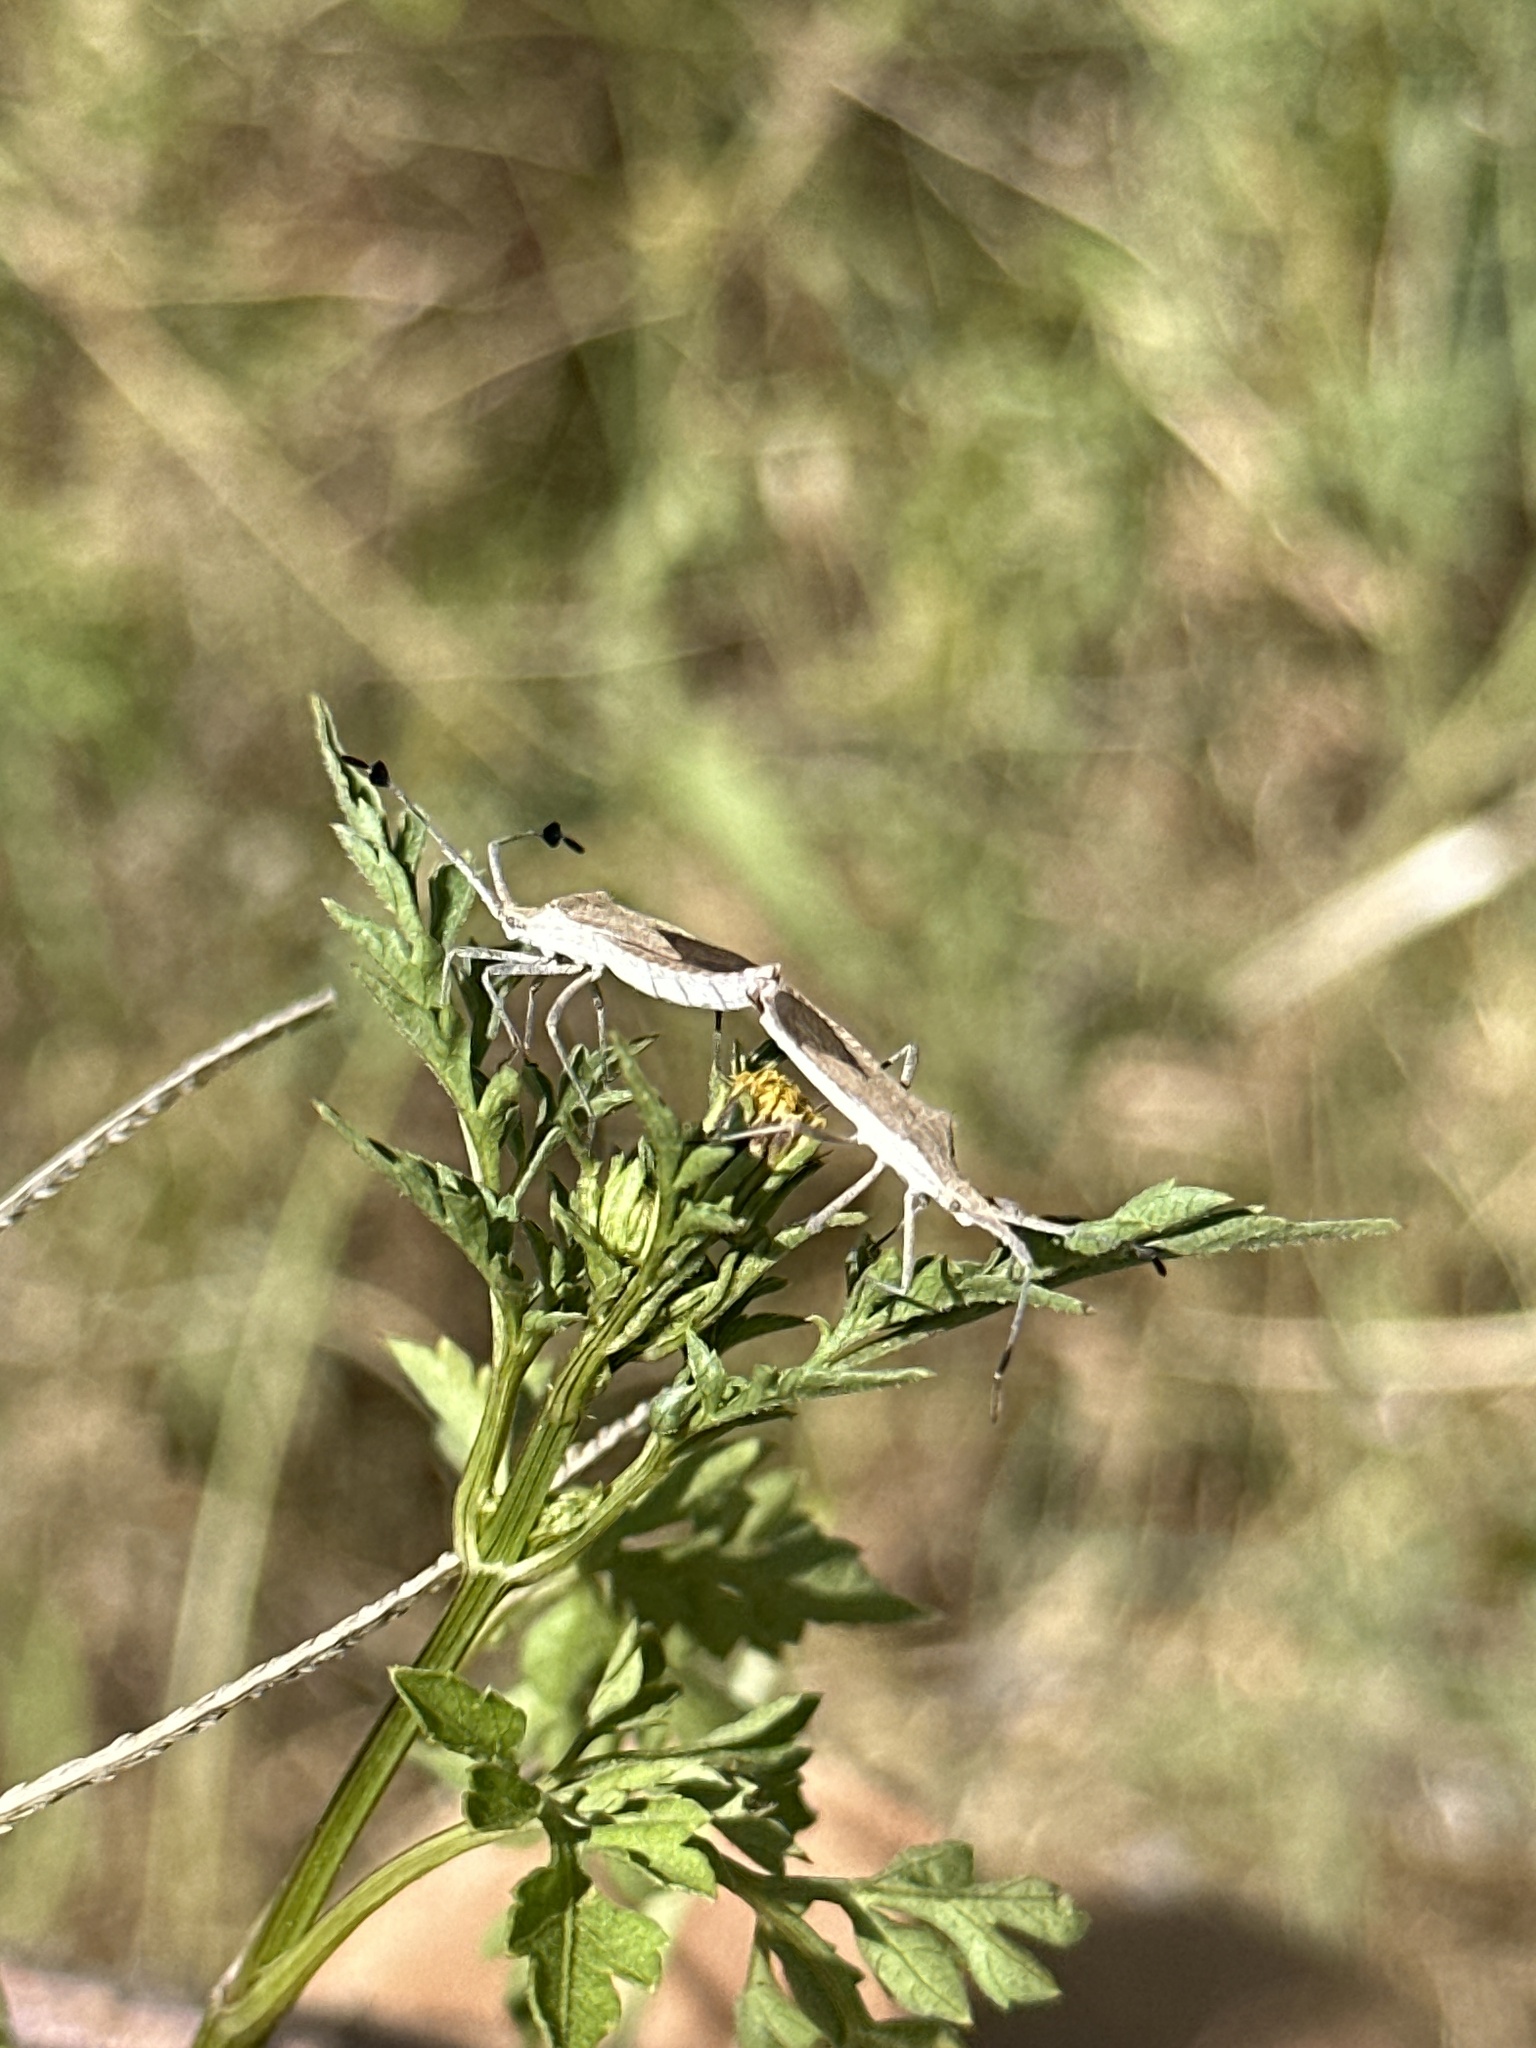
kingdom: Animalia
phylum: Arthropoda
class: Insecta
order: Hemiptera
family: Coreidae
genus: Chariesterus
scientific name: Chariesterus antennator
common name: Flat horned coreid
